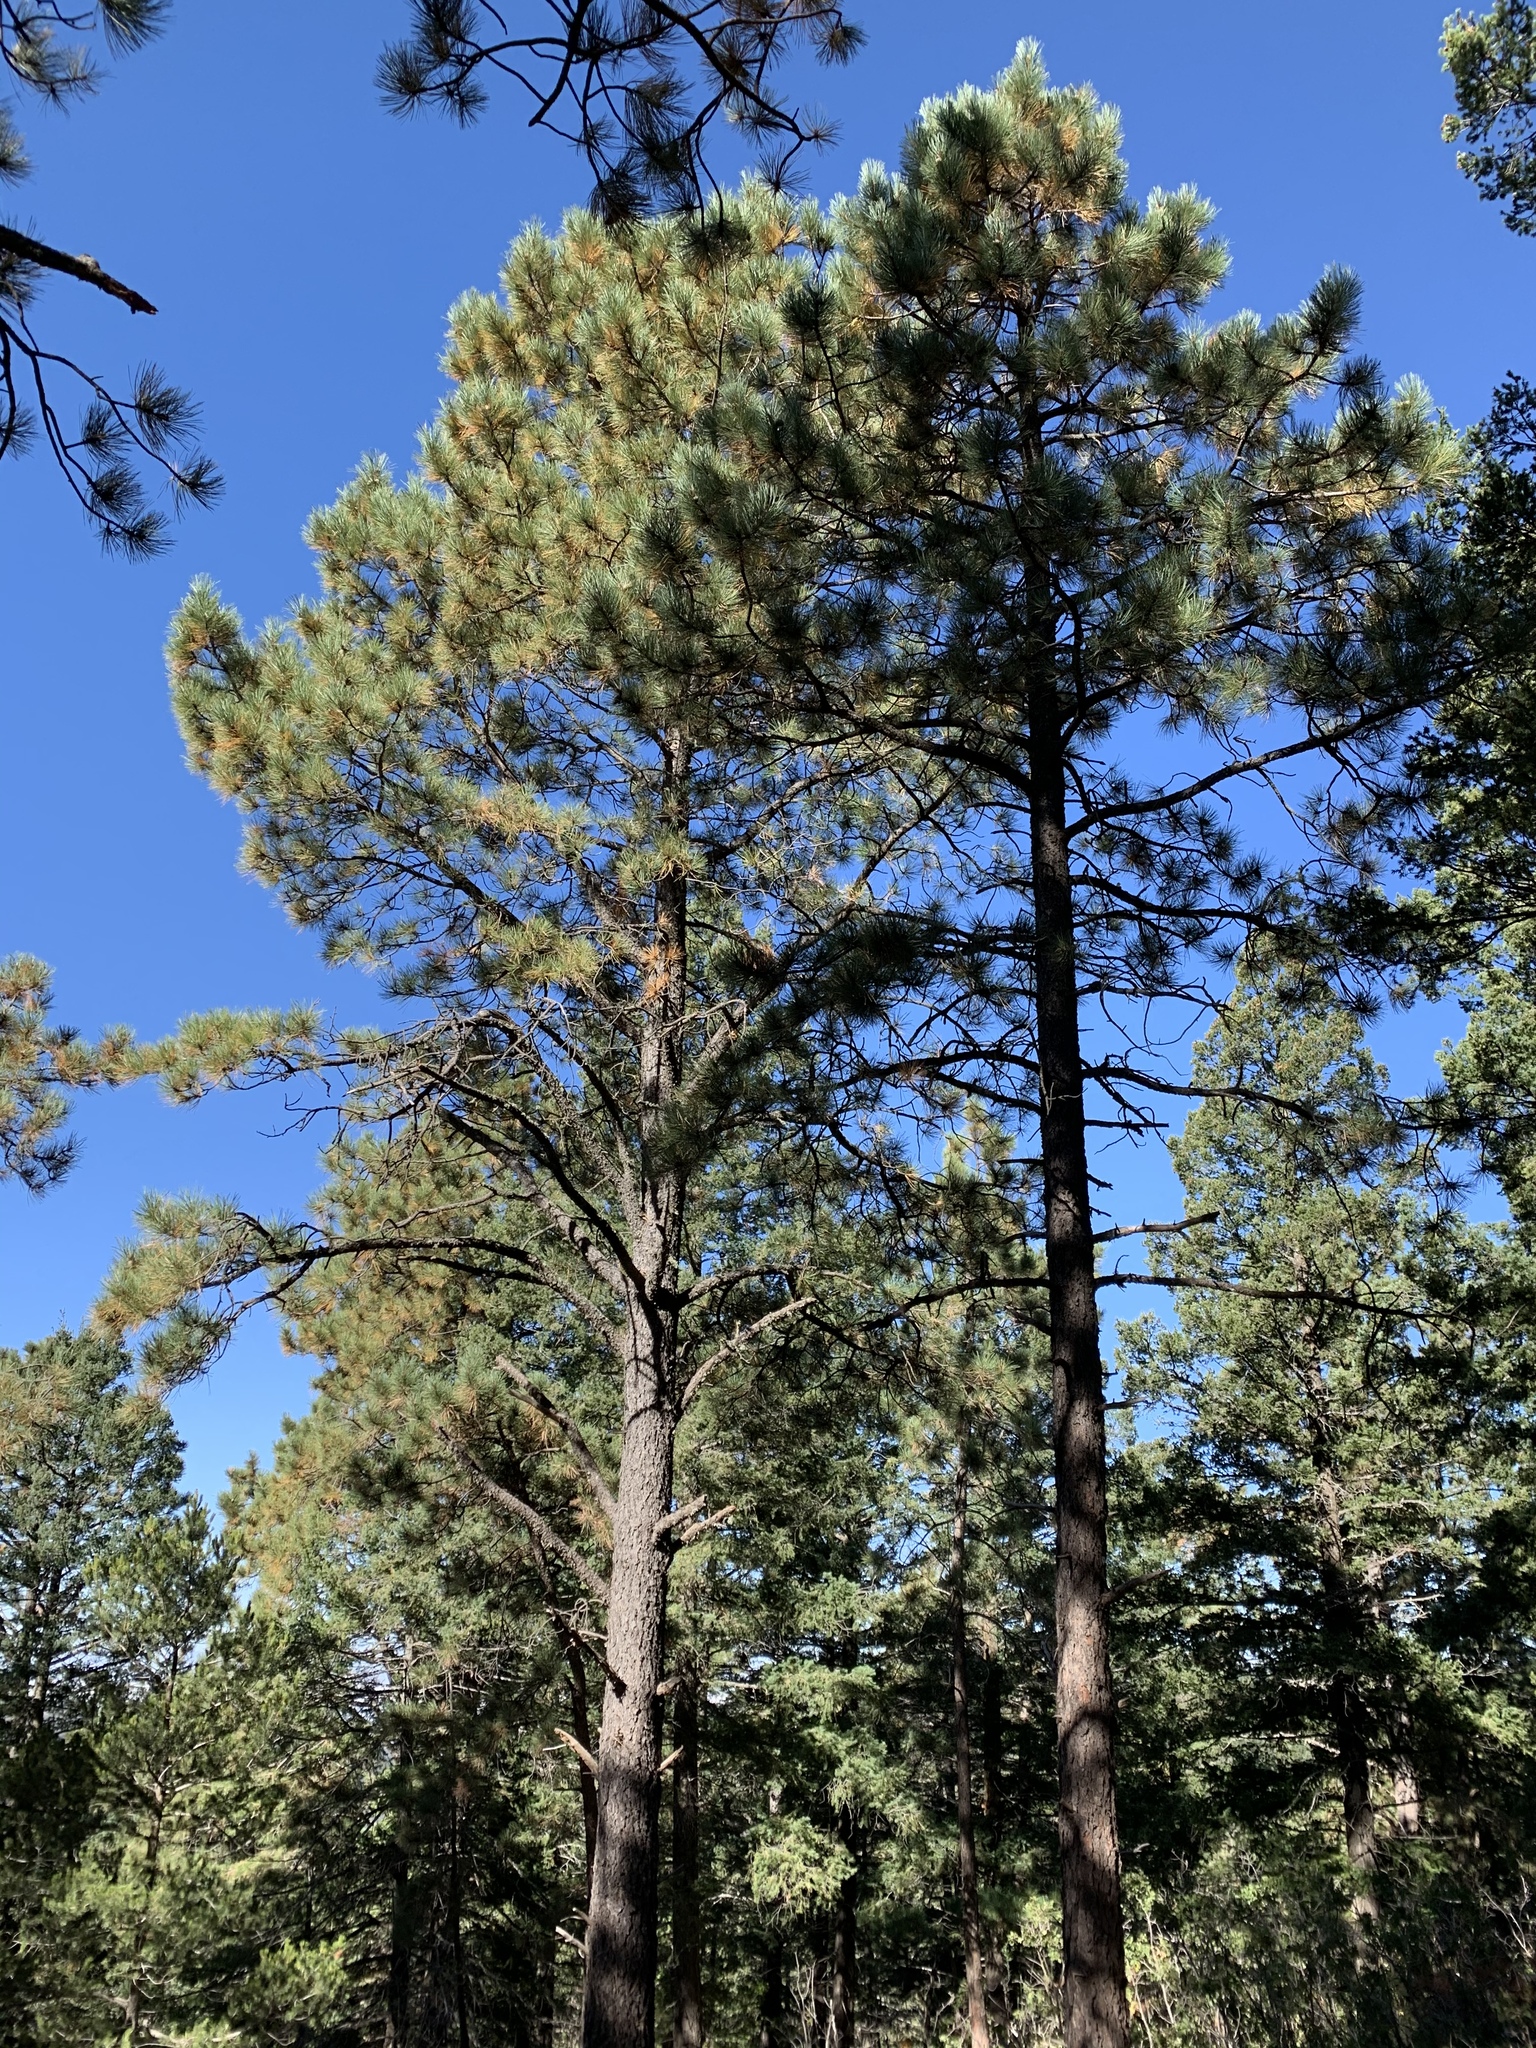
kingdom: Plantae
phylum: Tracheophyta
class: Pinopsida
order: Pinales
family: Pinaceae
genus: Pinus
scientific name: Pinus ponderosa
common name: Western yellow-pine
